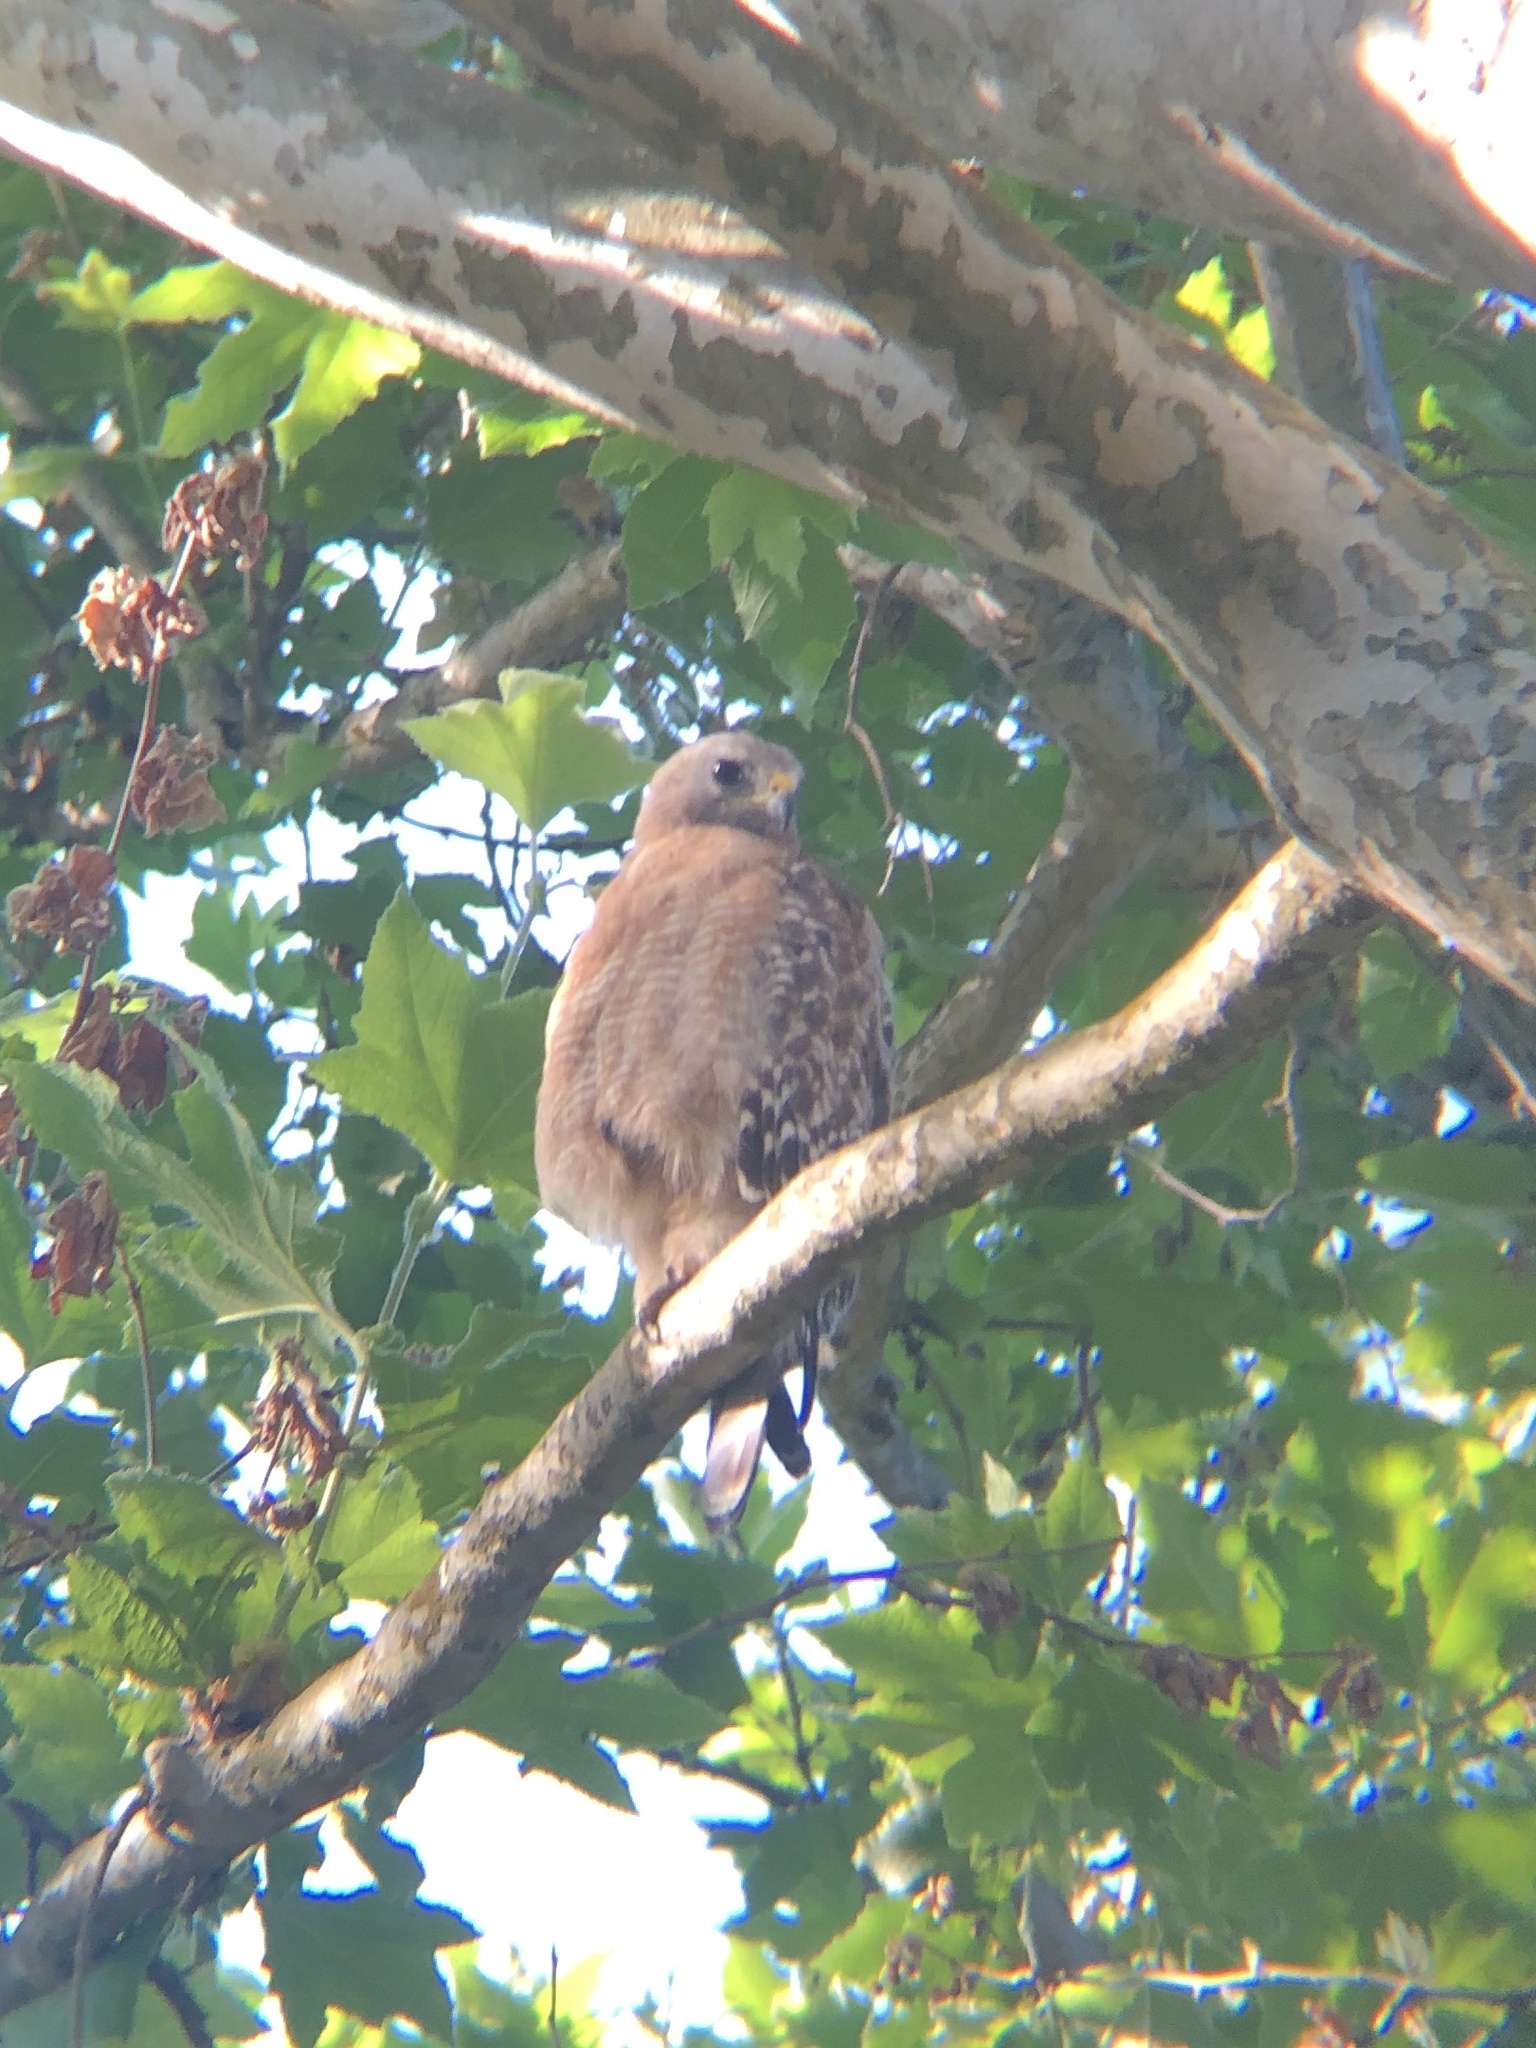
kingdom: Animalia
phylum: Chordata
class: Aves
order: Accipitriformes
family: Accipitridae
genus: Buteo
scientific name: Buteo lineatus
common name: Red-shouldered hawk
